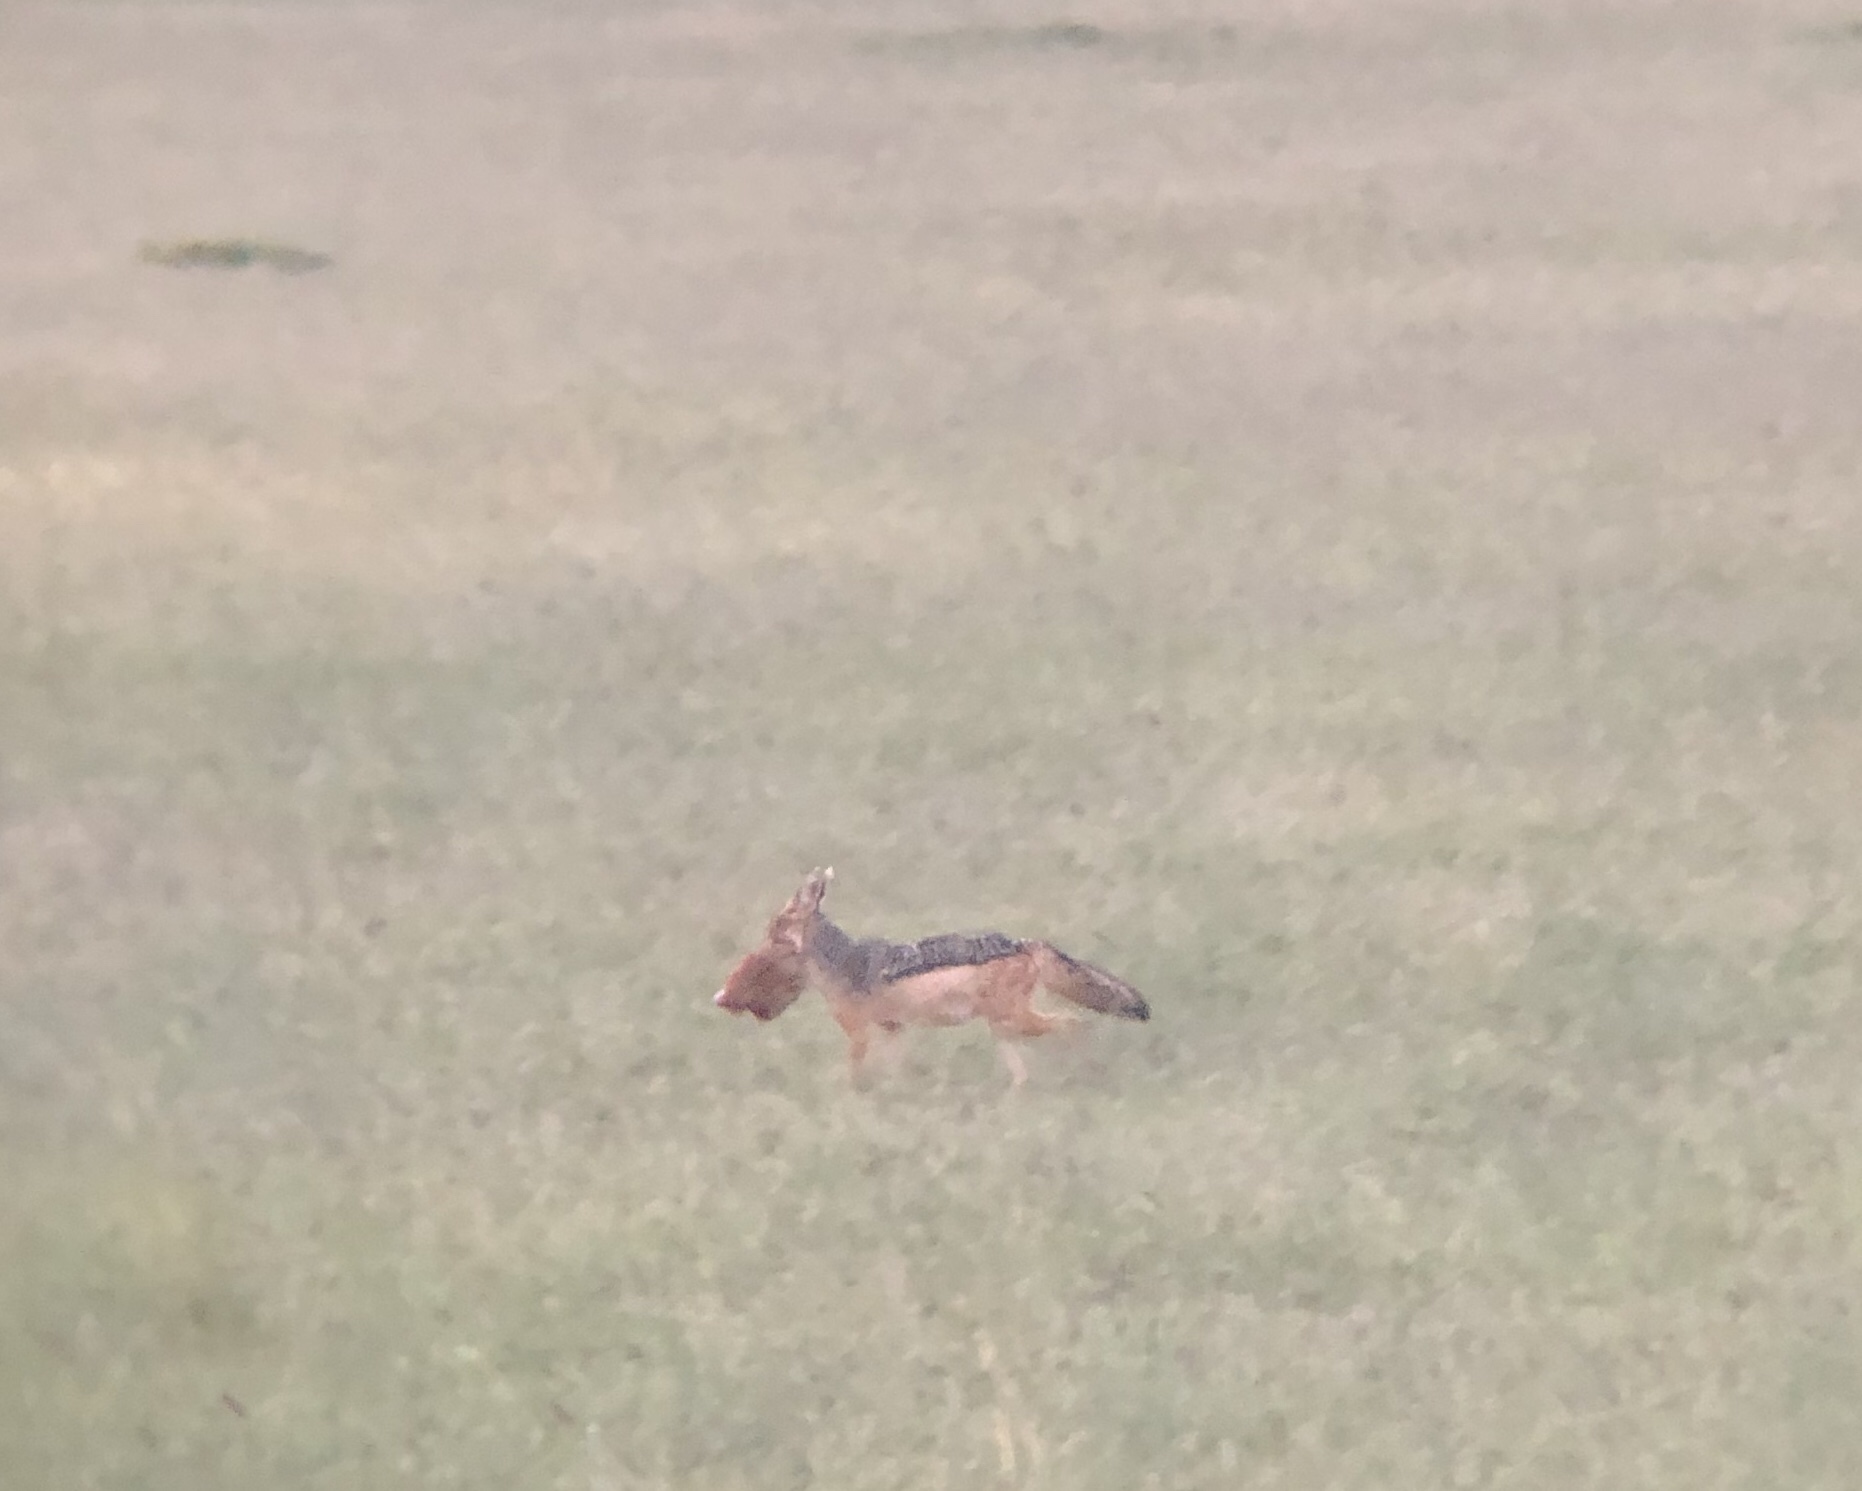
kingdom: Animalia
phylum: Chordata
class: Mammalia
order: Carnivora
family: Canidae
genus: Lupulella
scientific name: Lupulella
